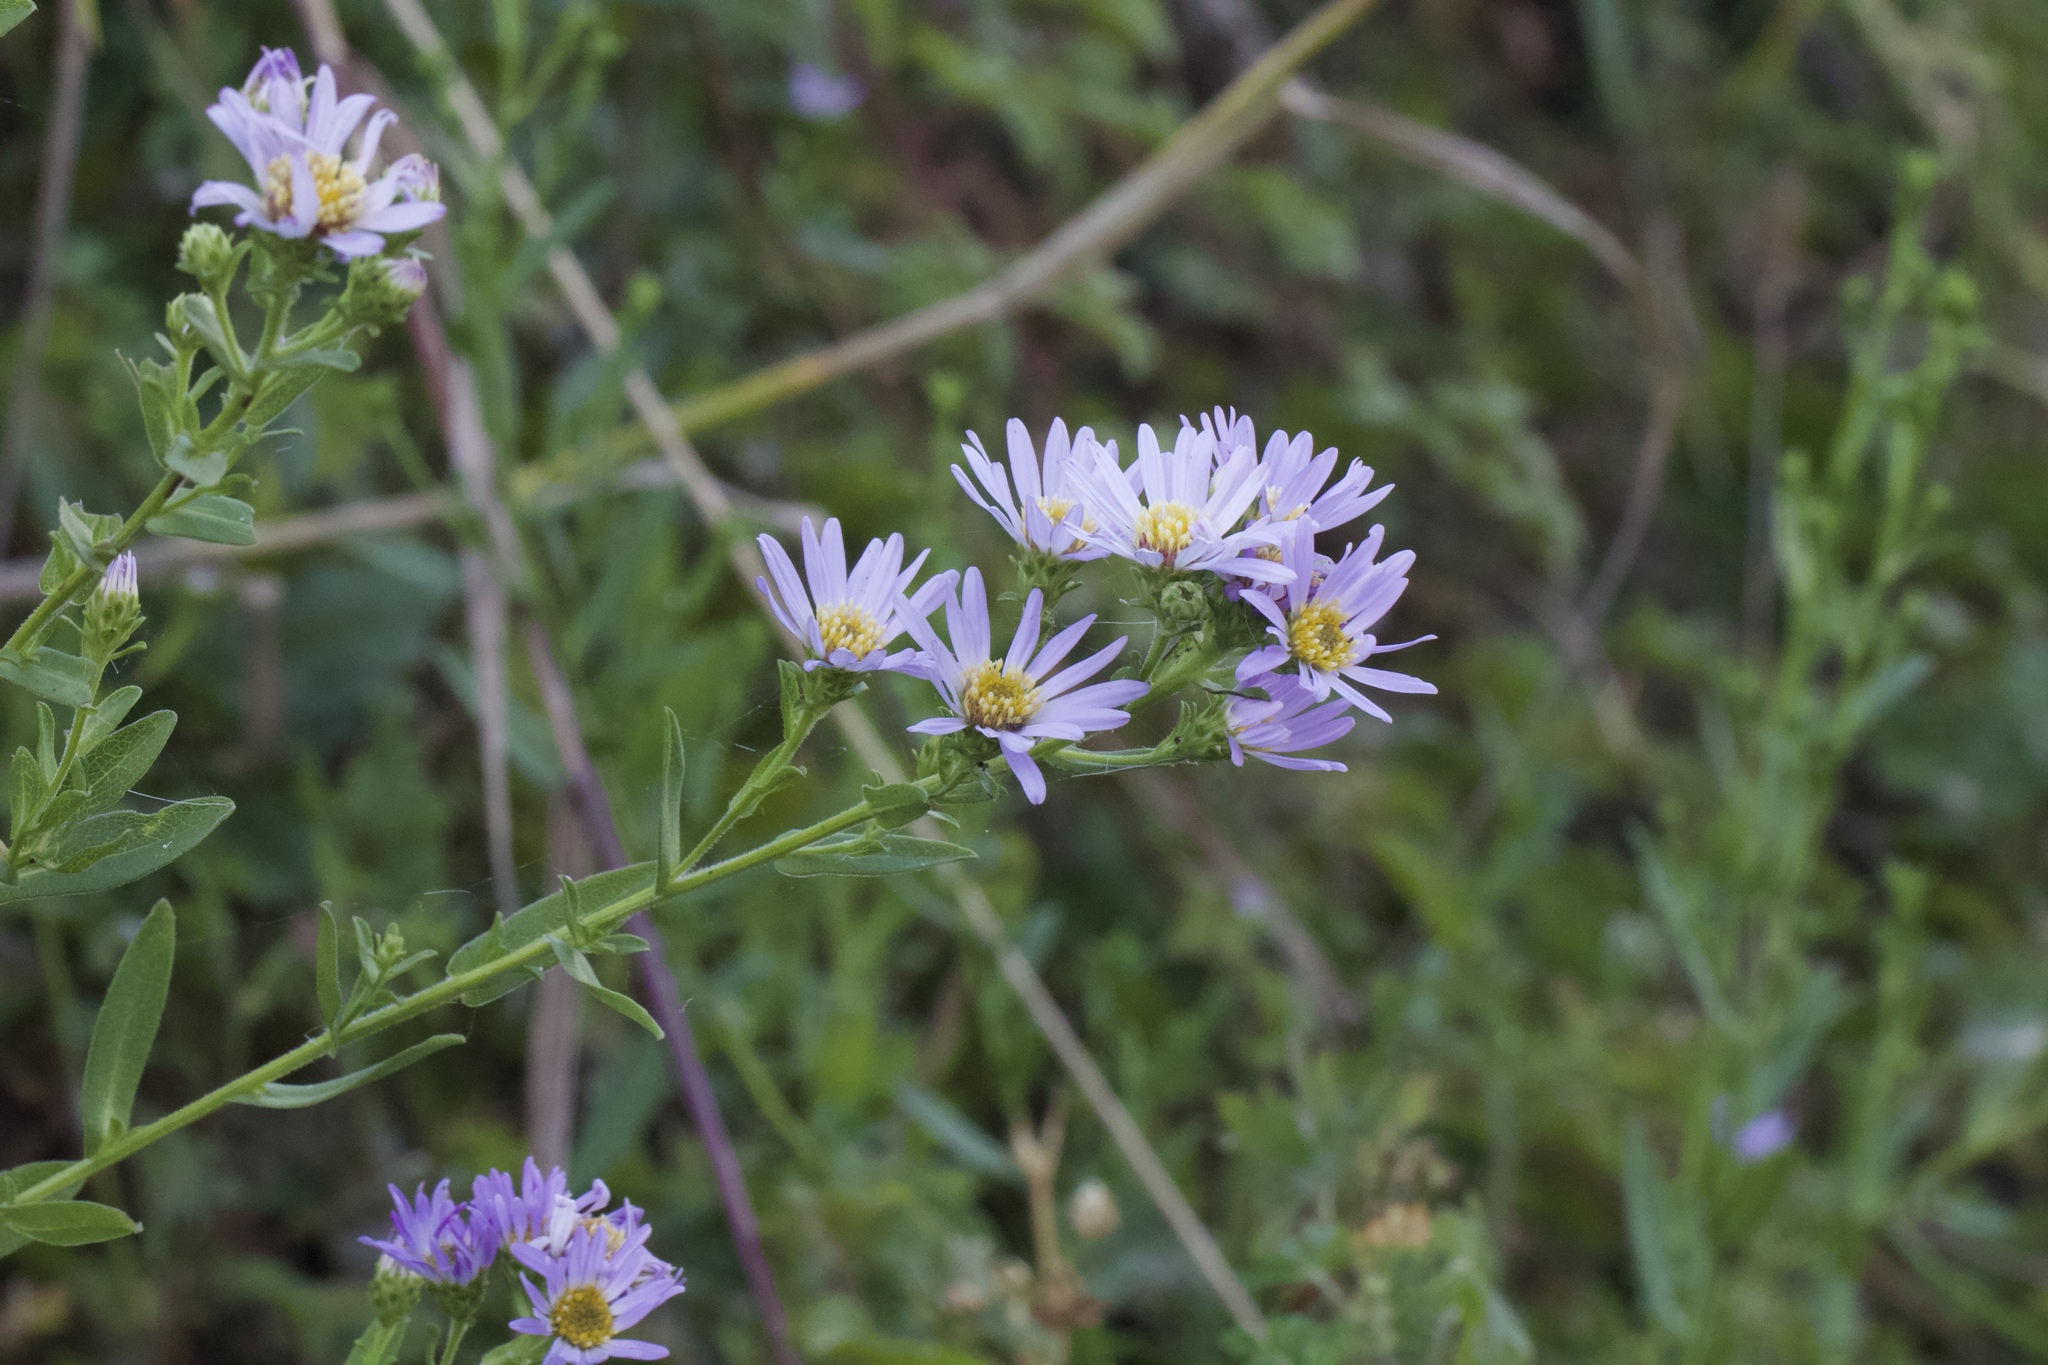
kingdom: Plantae
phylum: Tracheophyta
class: Magnoliopsida
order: Asterales
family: Asteraceae
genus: Symphyotrichum
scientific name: Symphyotrichum chilense
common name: Pacific aster
